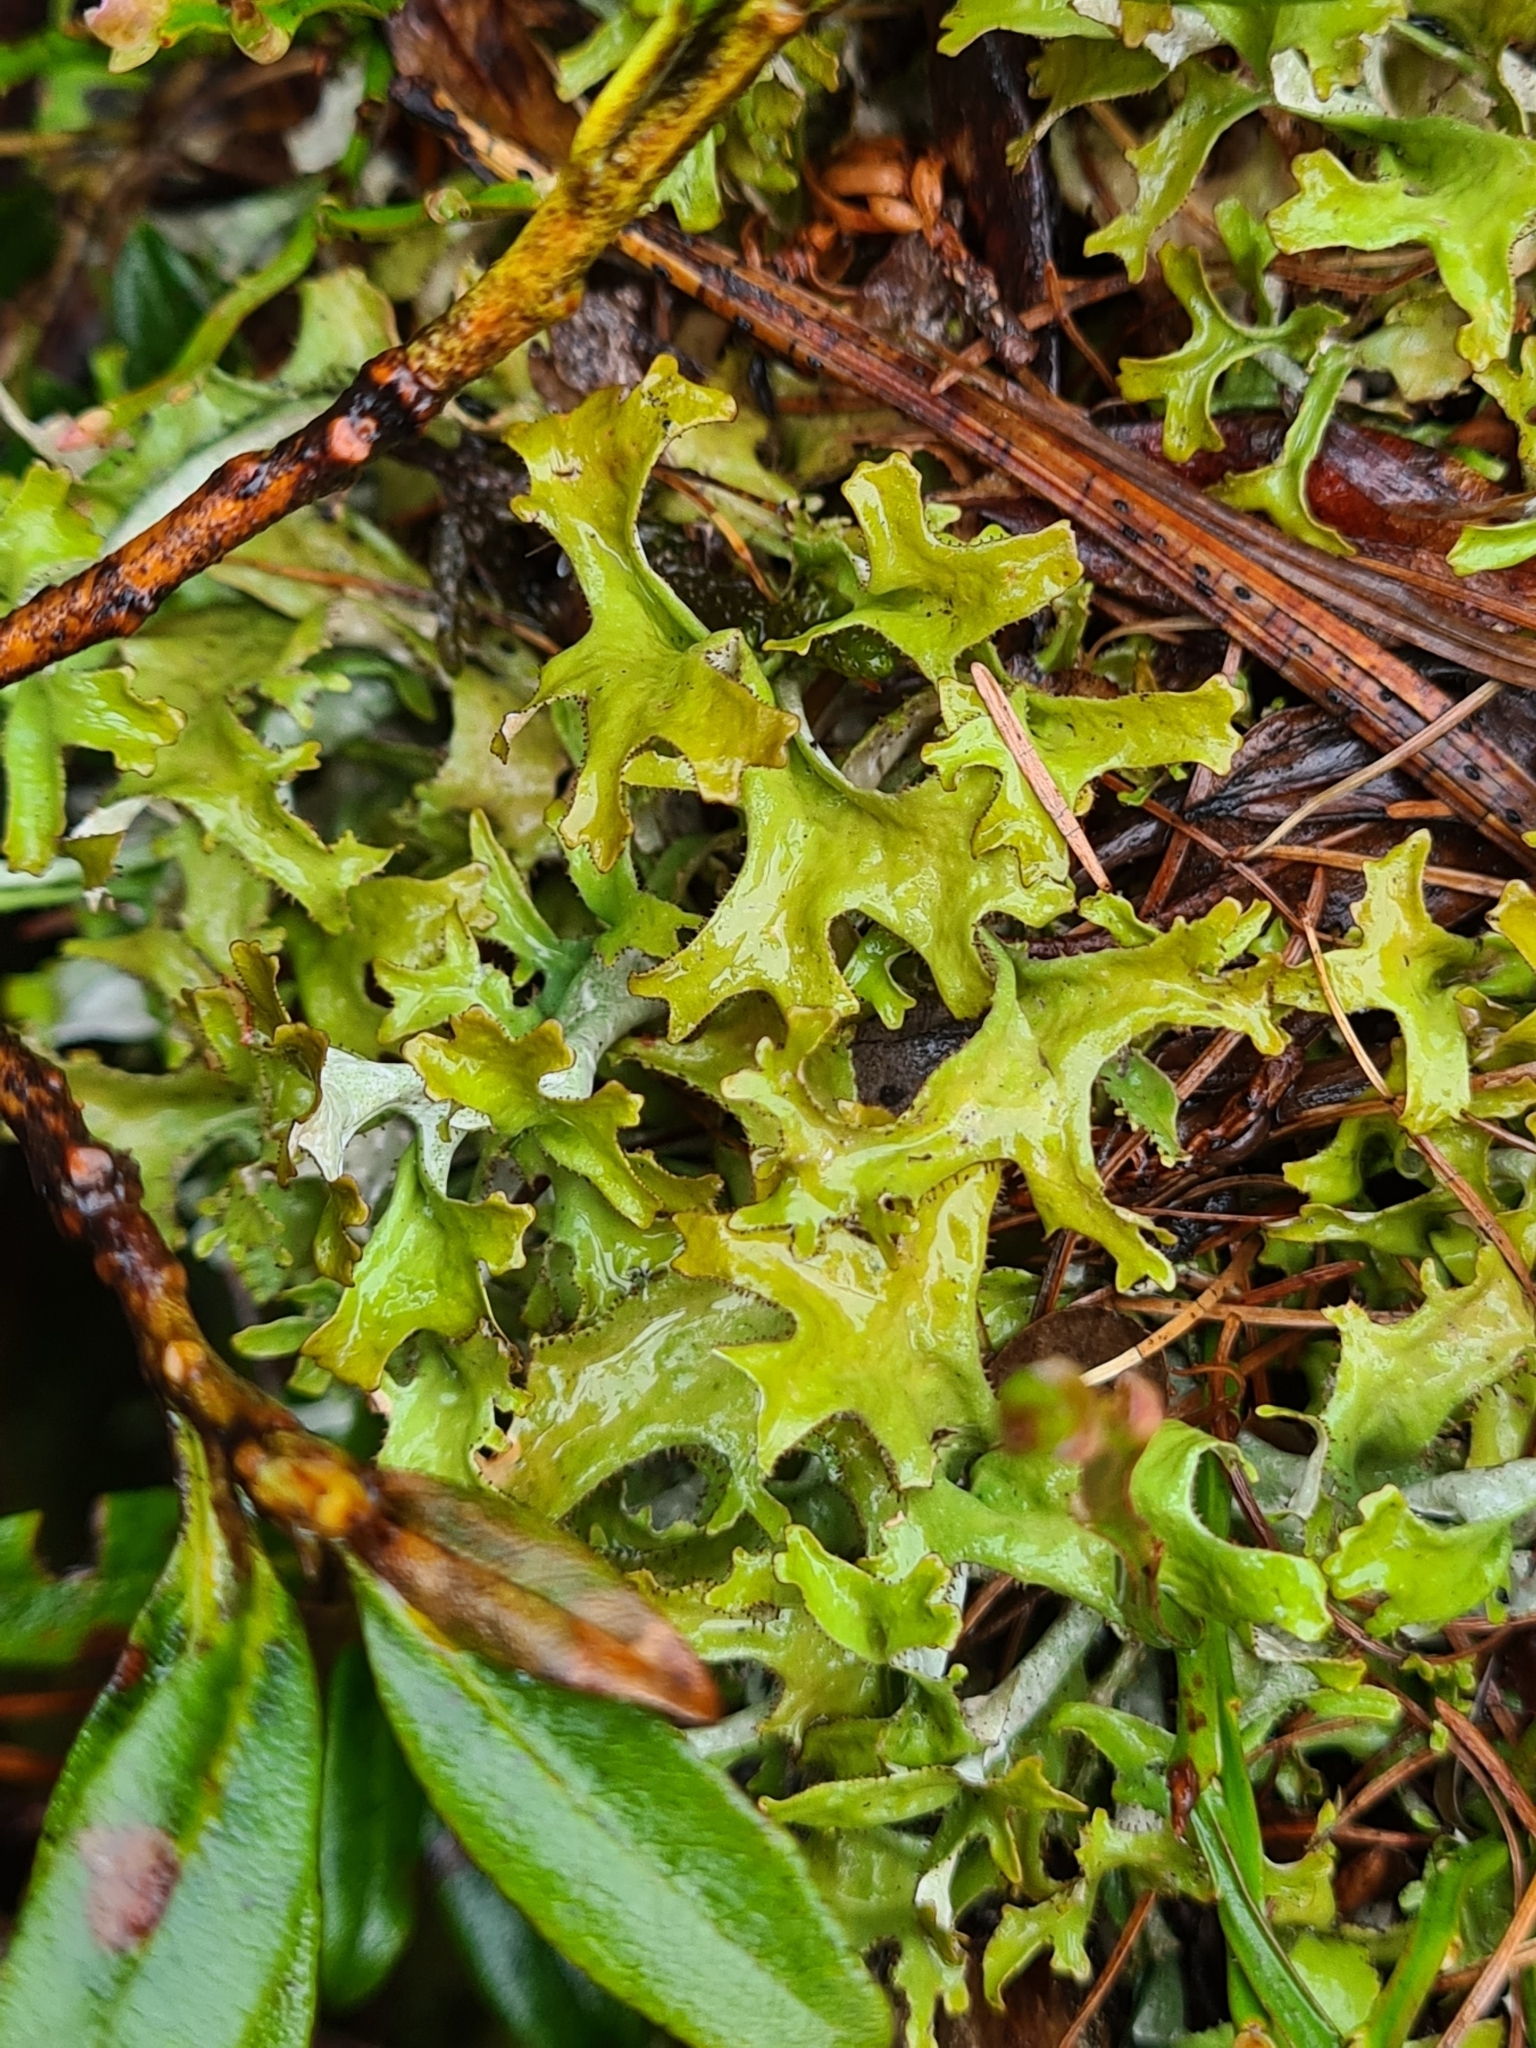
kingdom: Fungi
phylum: Ascomycota
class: Lecanoromycetes
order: Lecanorales
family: Parmeliaceae
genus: Cetraria
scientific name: Cetraria islandica
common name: Iceland lichen
